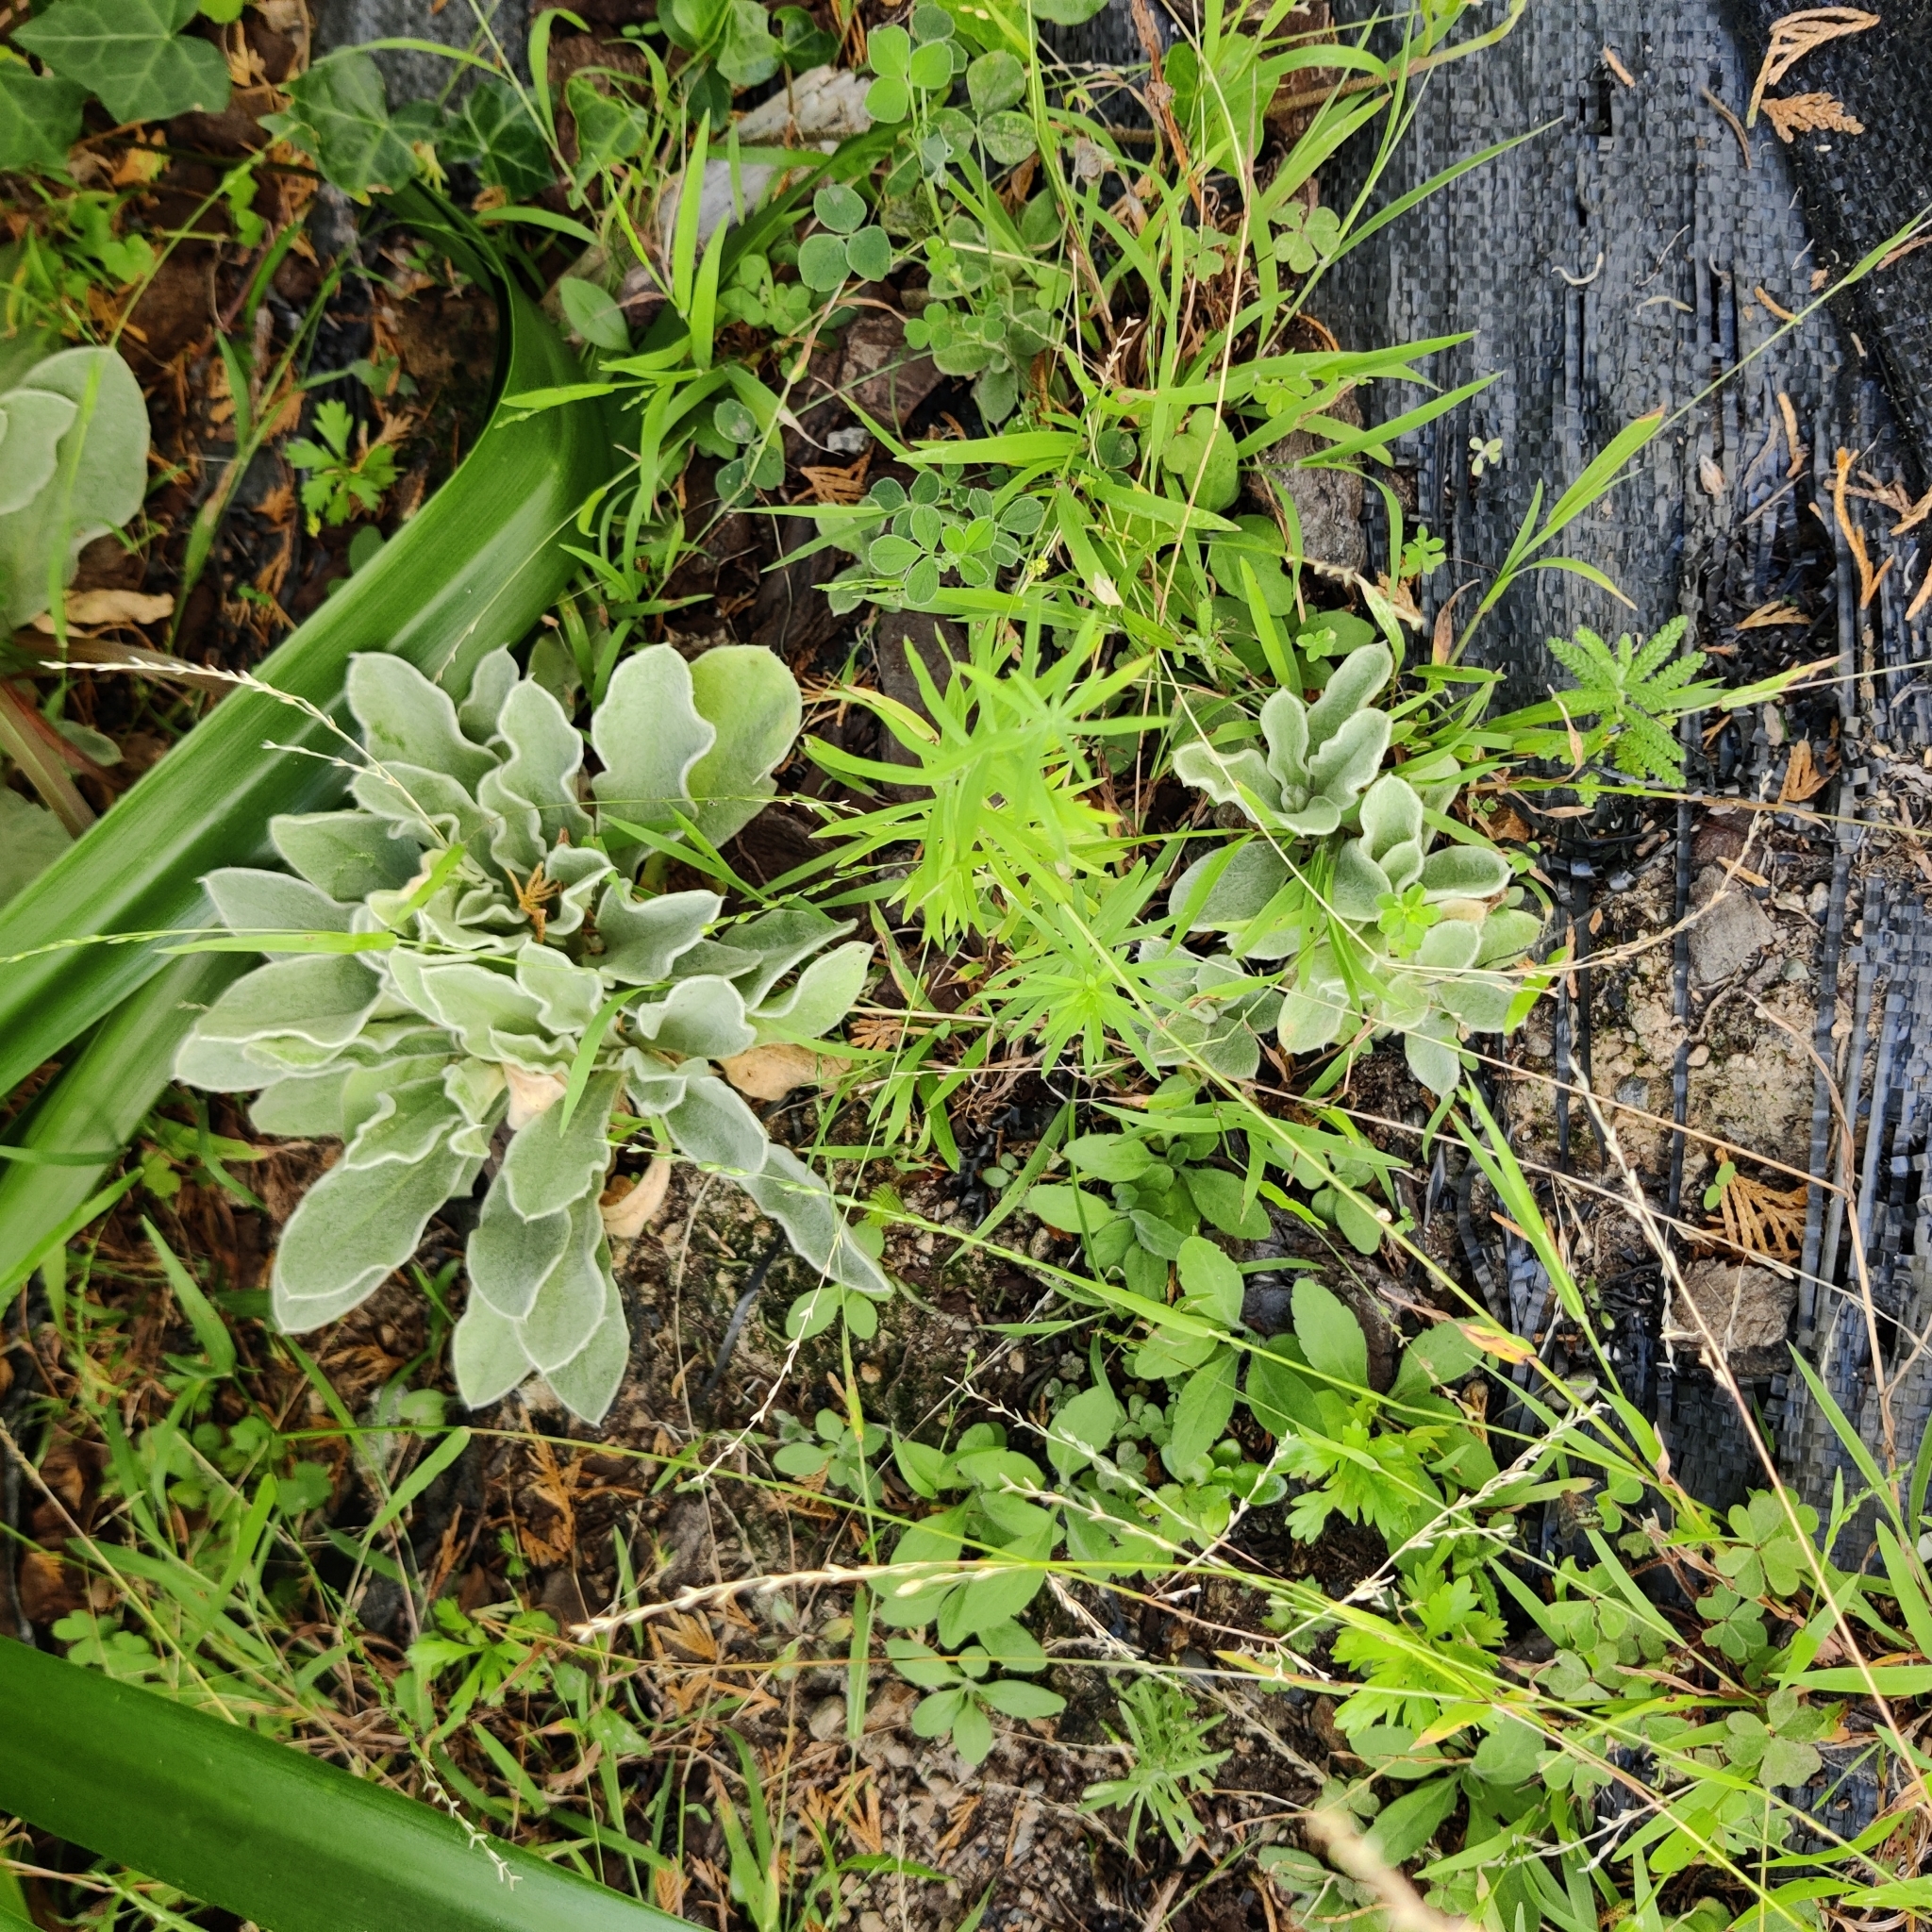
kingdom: Plantae
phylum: Tracheophyta
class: Magnoliopsida
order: Caryophyllales
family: Caryophyllaceae
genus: Silene
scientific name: Silene coronaria
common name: Rose campion
